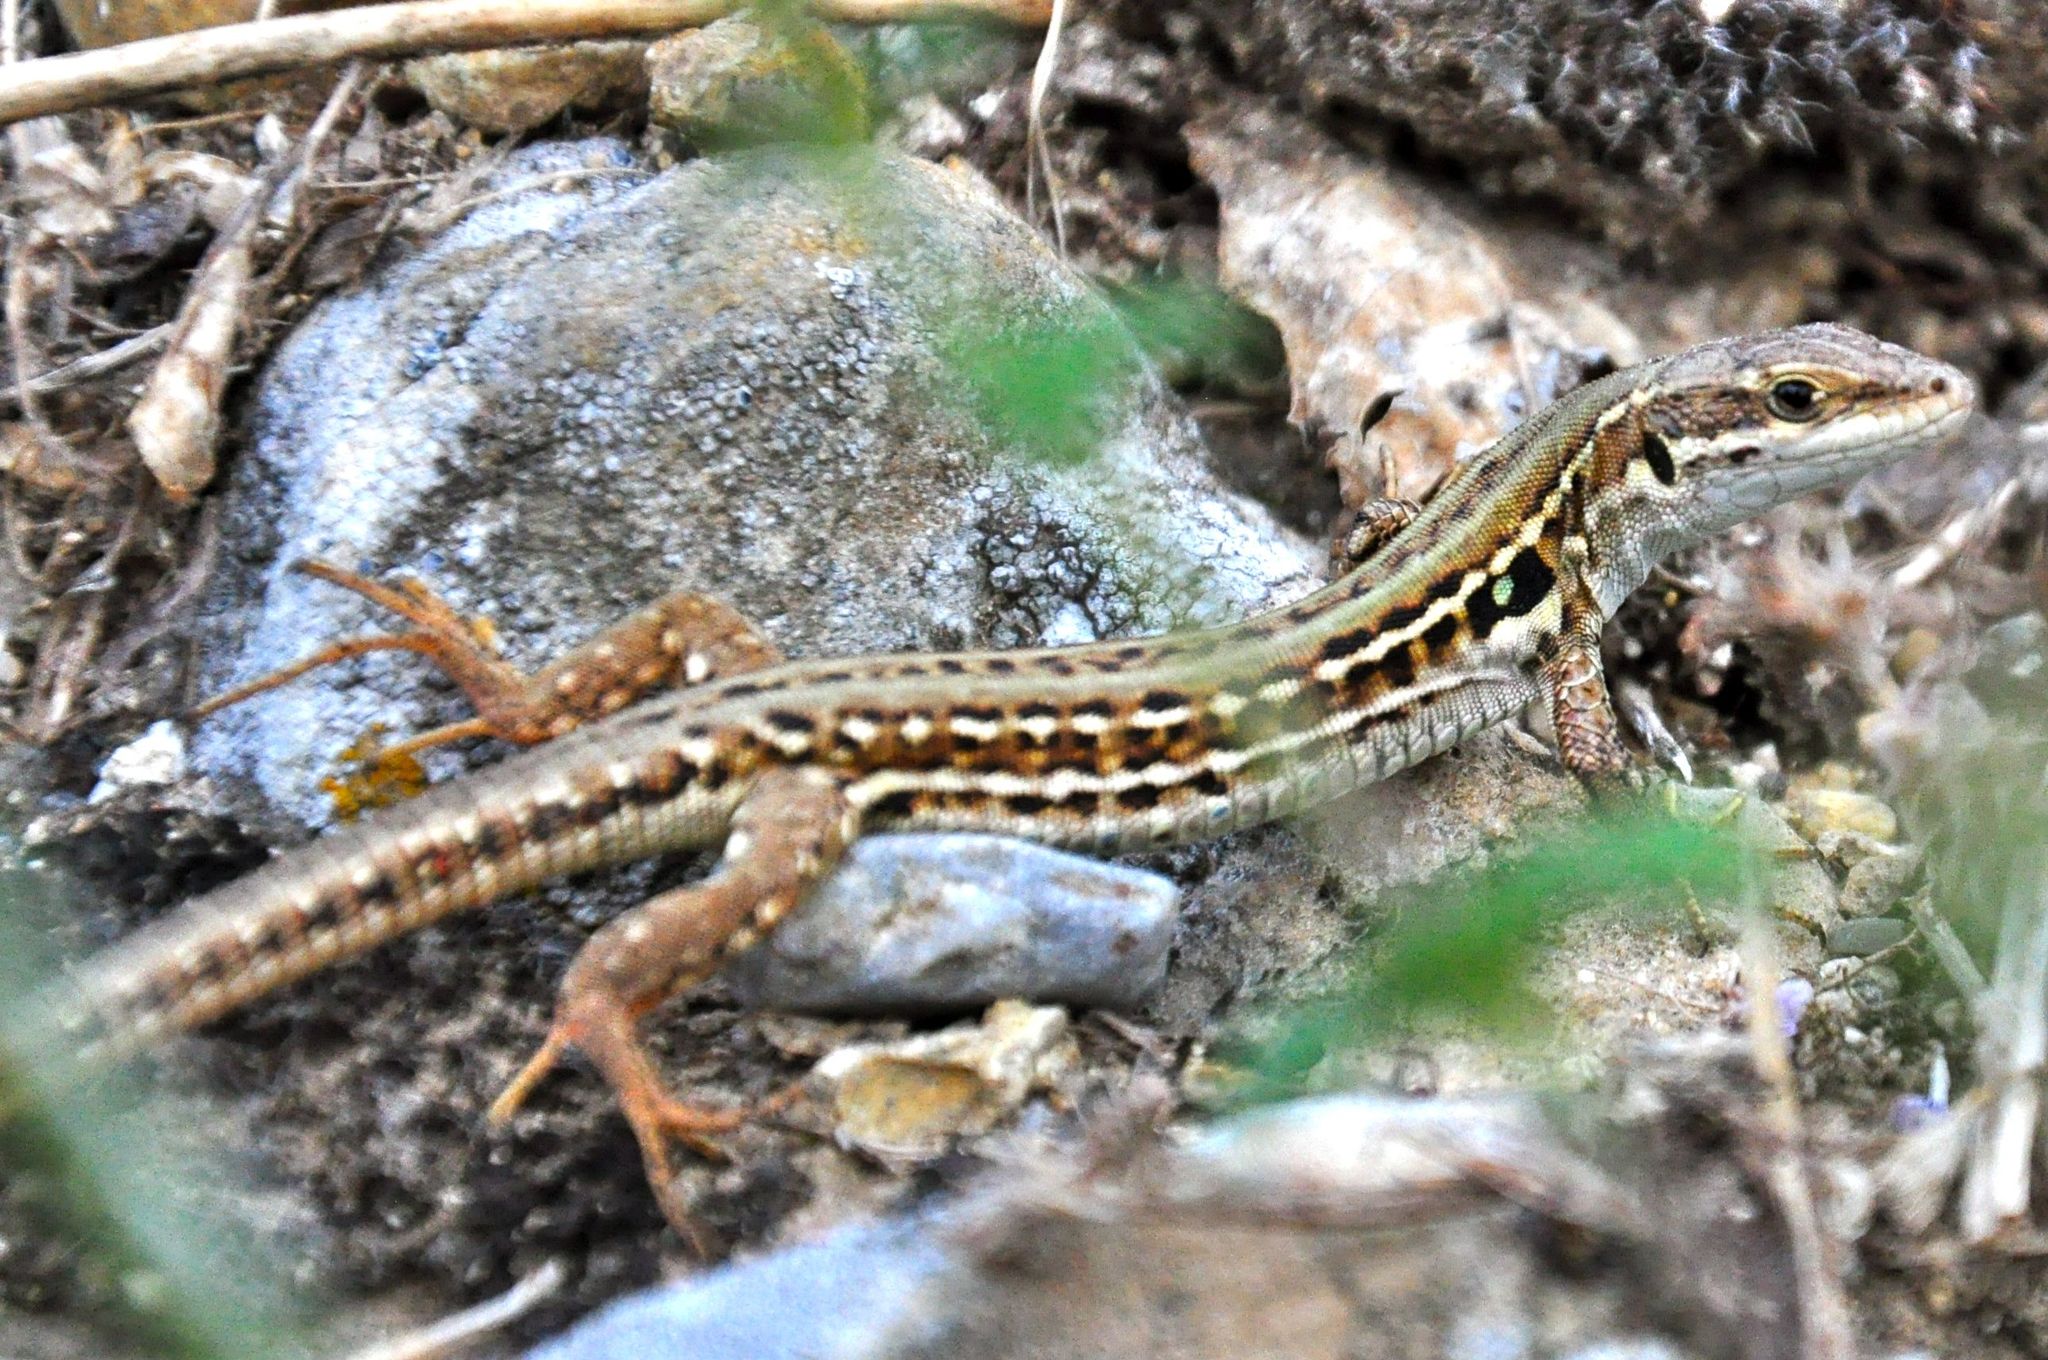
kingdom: Animalia
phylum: Chordata
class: Squamata
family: Lacertidae
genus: Podarcis
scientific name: Podarcis siculus
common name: Italian wall lizard
